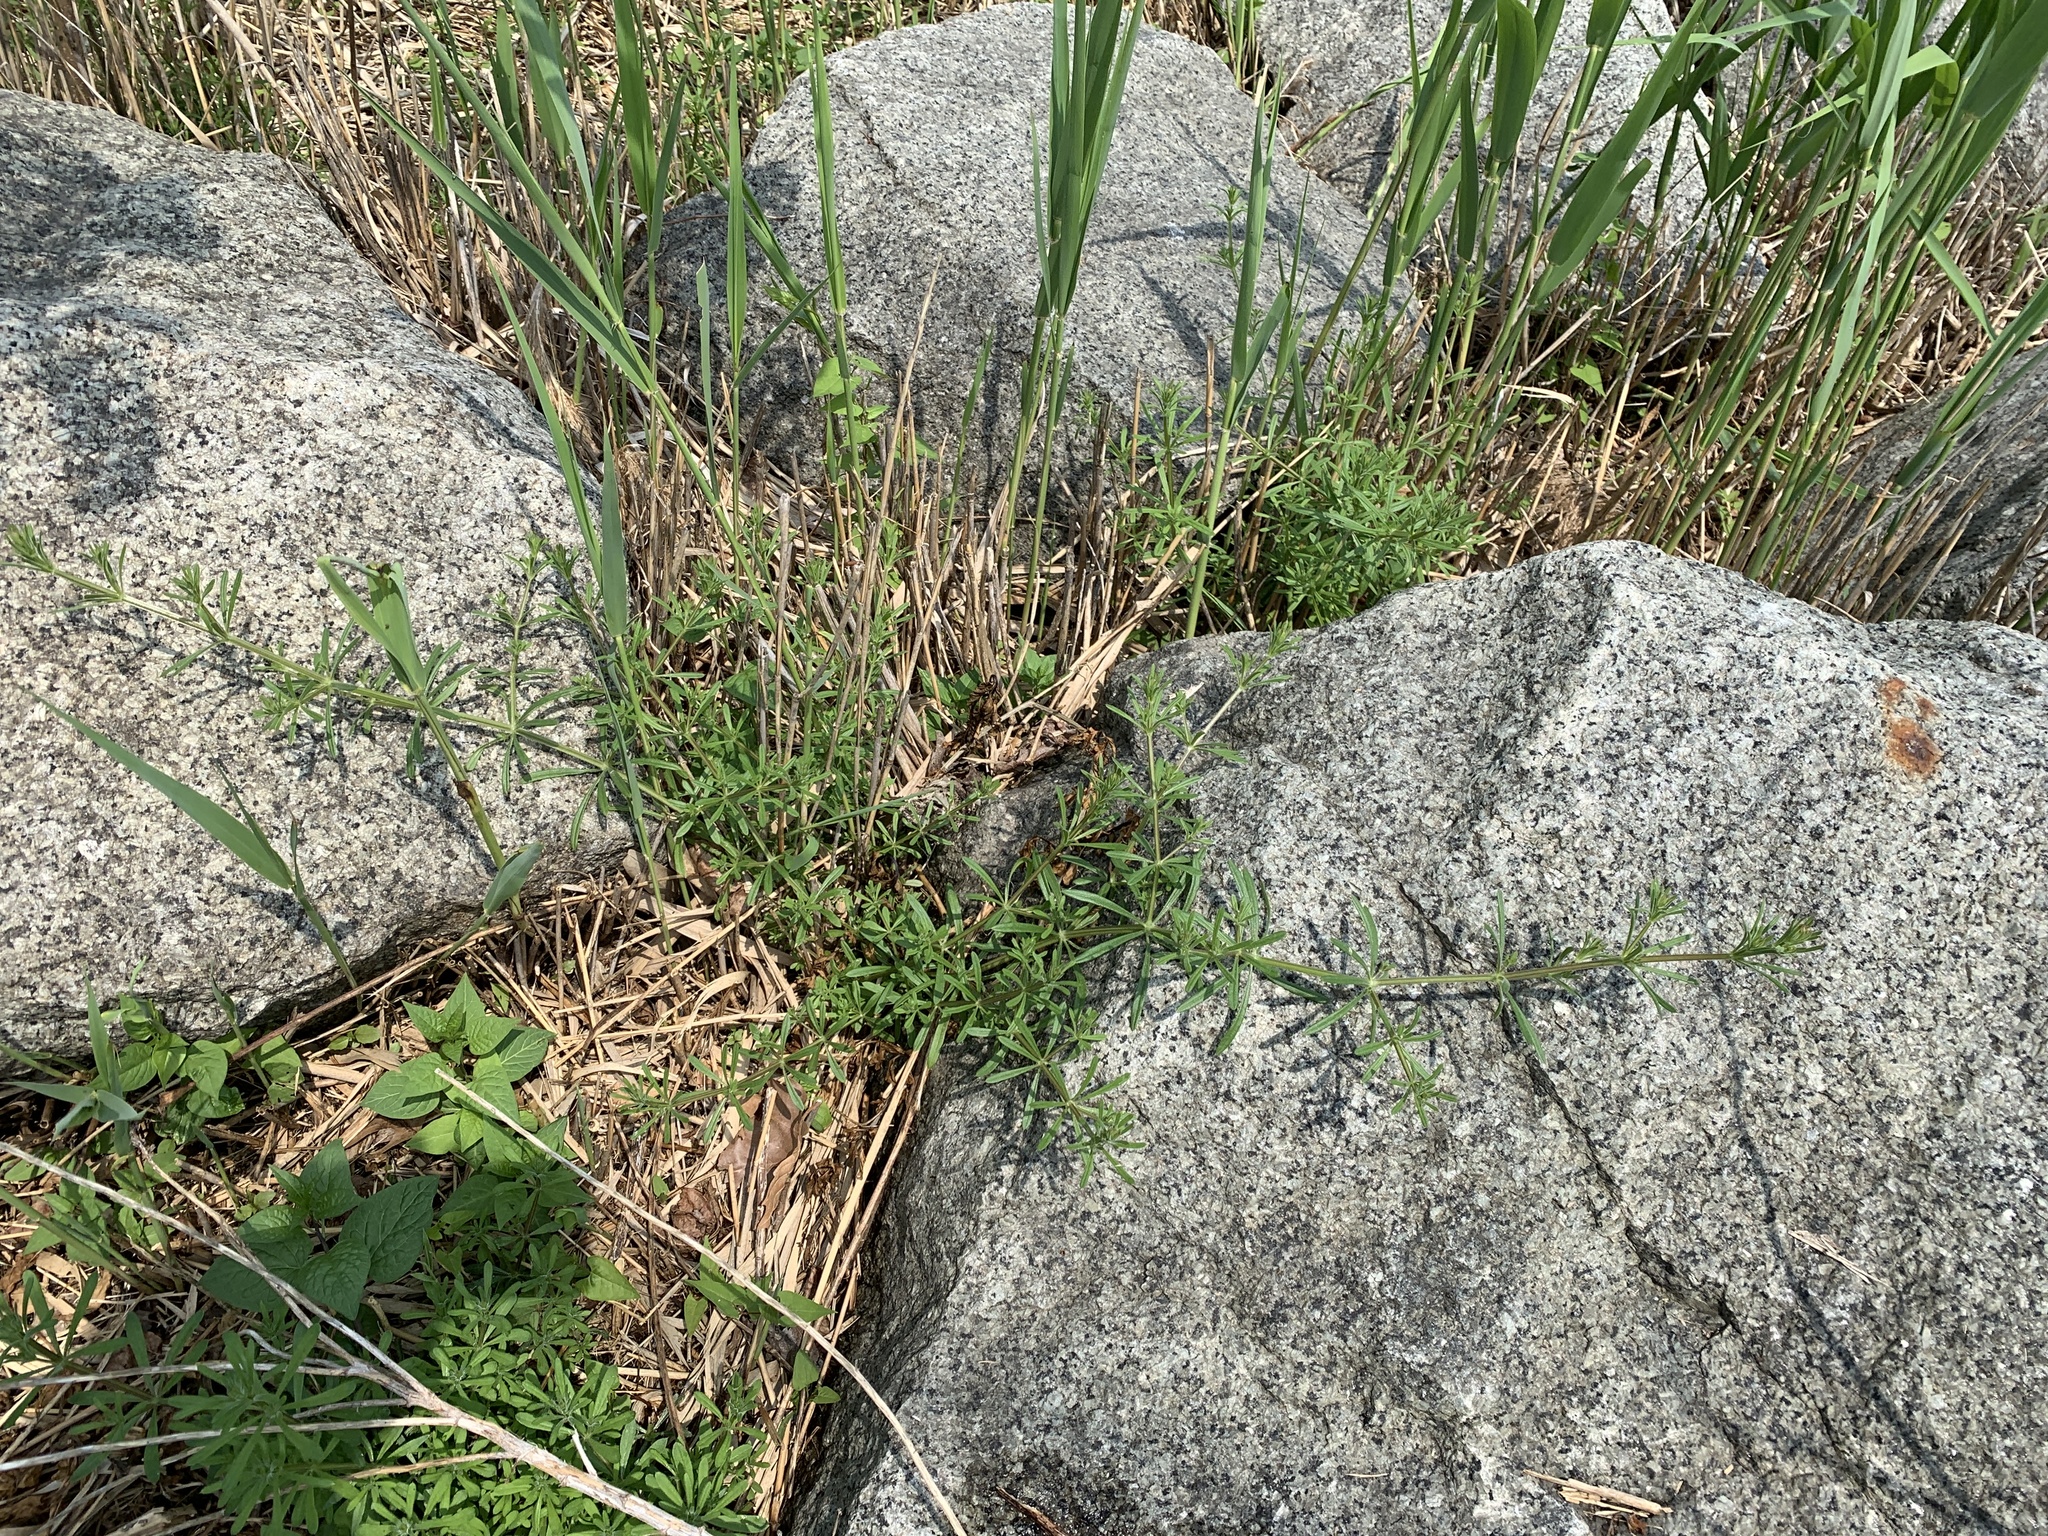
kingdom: Plantae
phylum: Tracheophyta
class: Magnoliopsida
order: Gentianales
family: Rubiaceae
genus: Galium
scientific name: Galium aparine
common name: Cleavers
